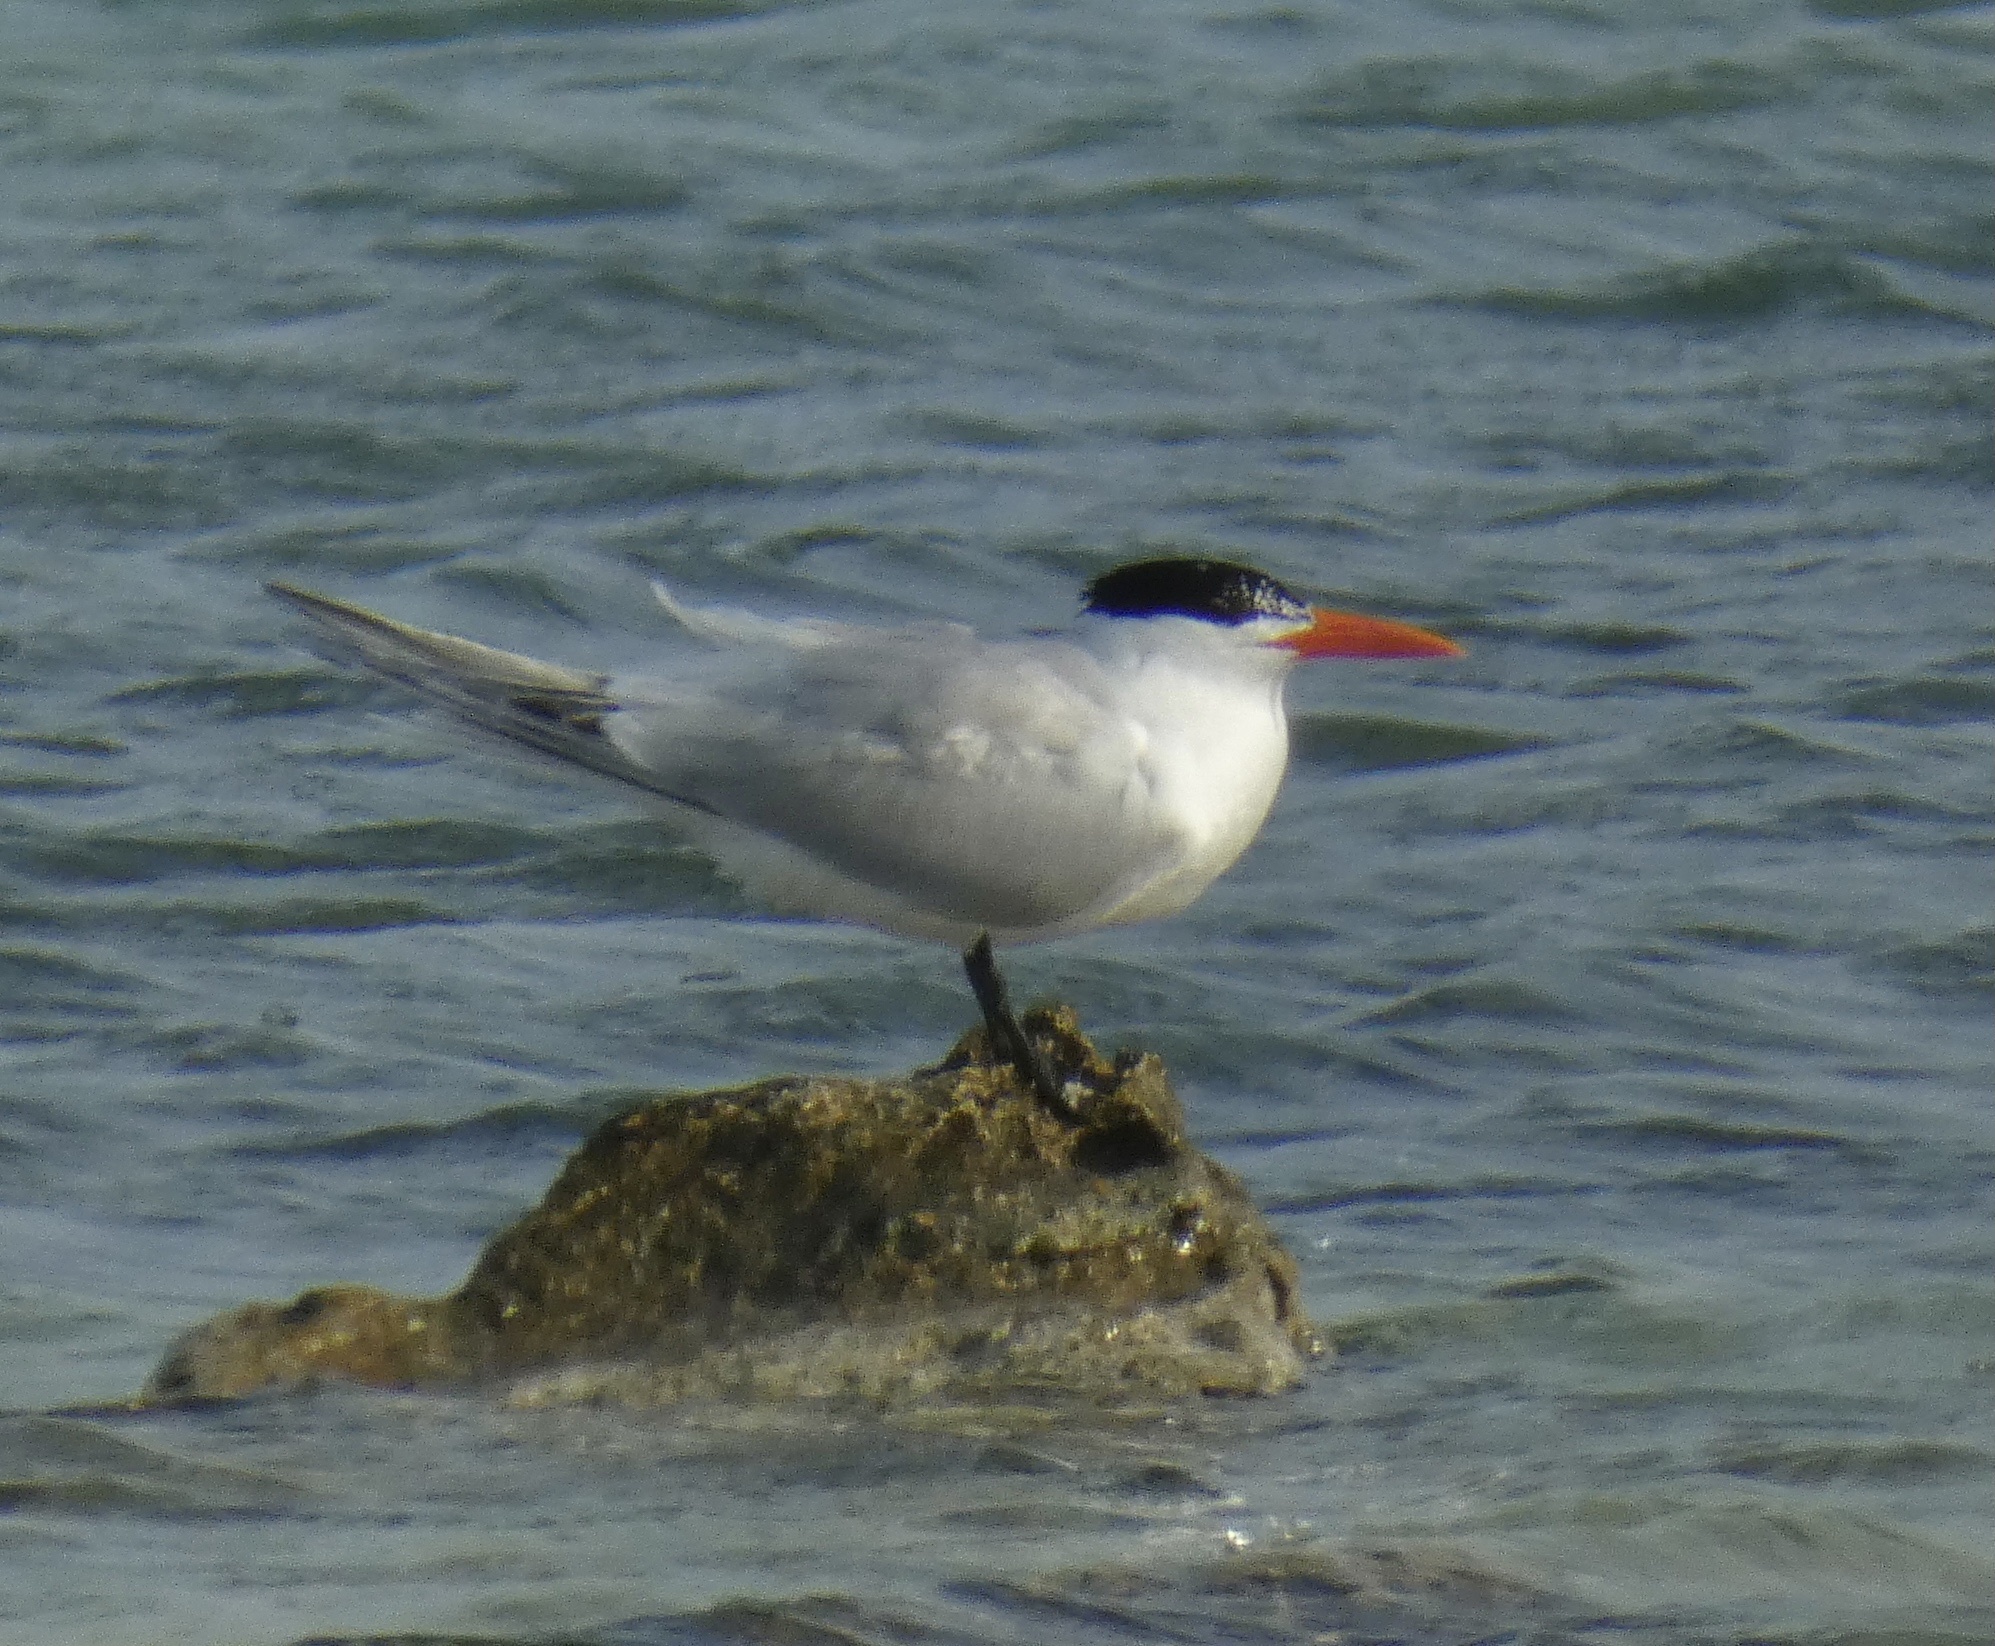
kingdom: Animalia
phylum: Chordata
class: Aves
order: Charadriiformes
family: Laridae
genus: Thalasseus
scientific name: Thalasseus maximus
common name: Royal tern
